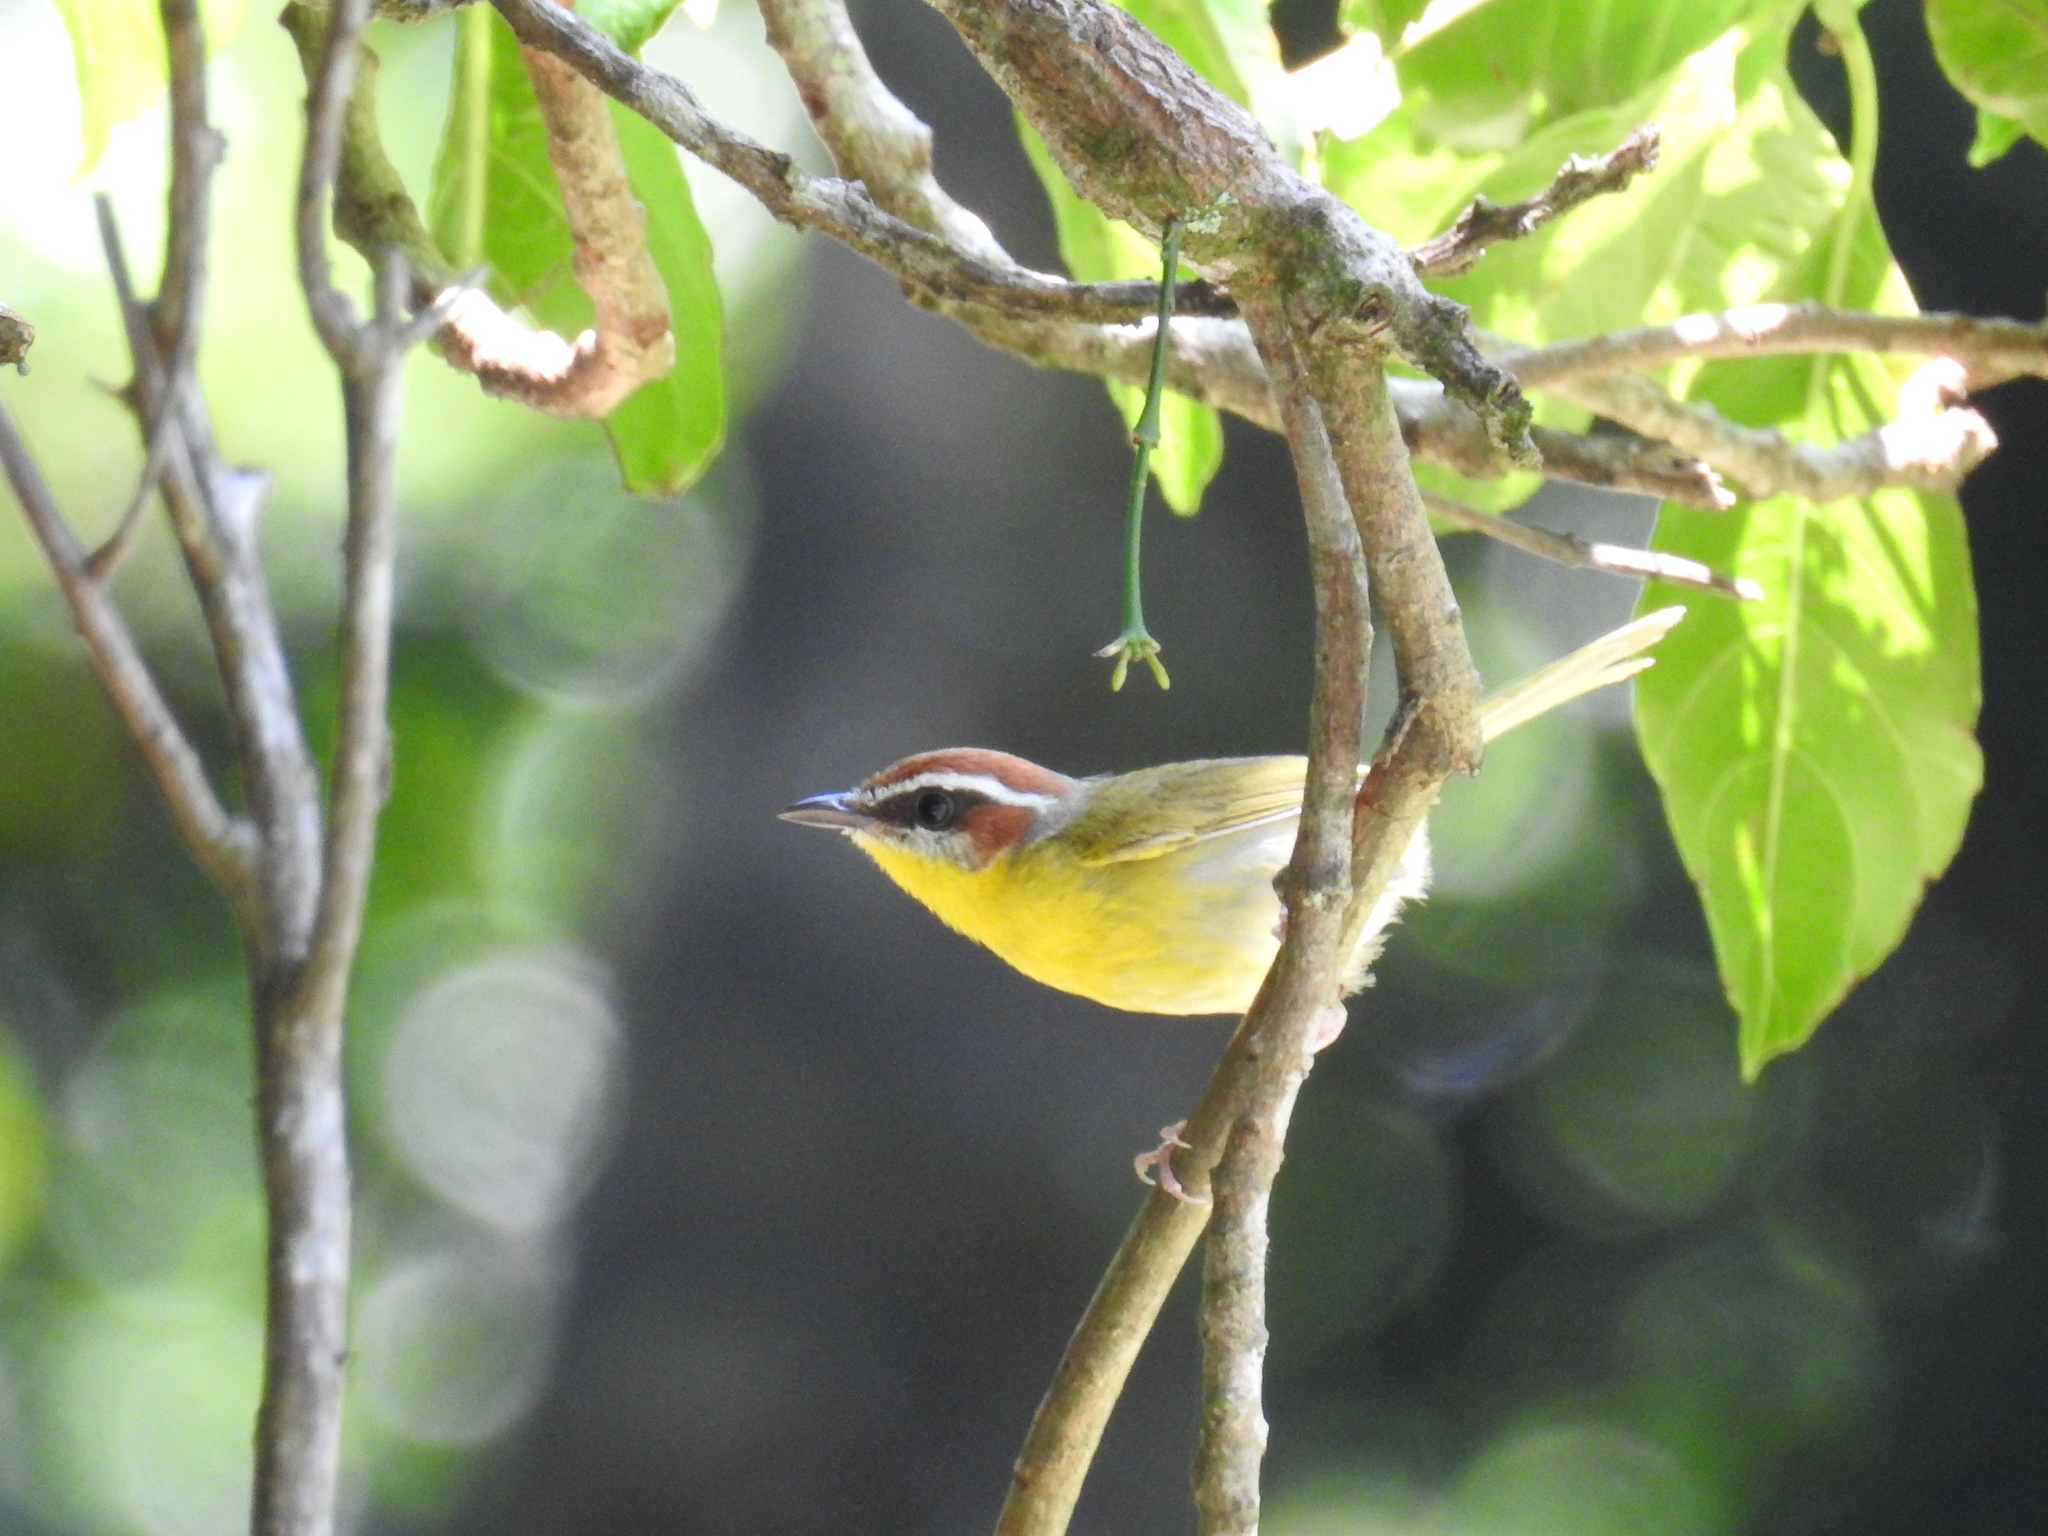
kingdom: Animalia
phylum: Chordata
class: Aves
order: Passeriformes
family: Parulidae
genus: Basileuterus
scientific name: Basileuterus rufifrons
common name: Rufous-capped warbler
